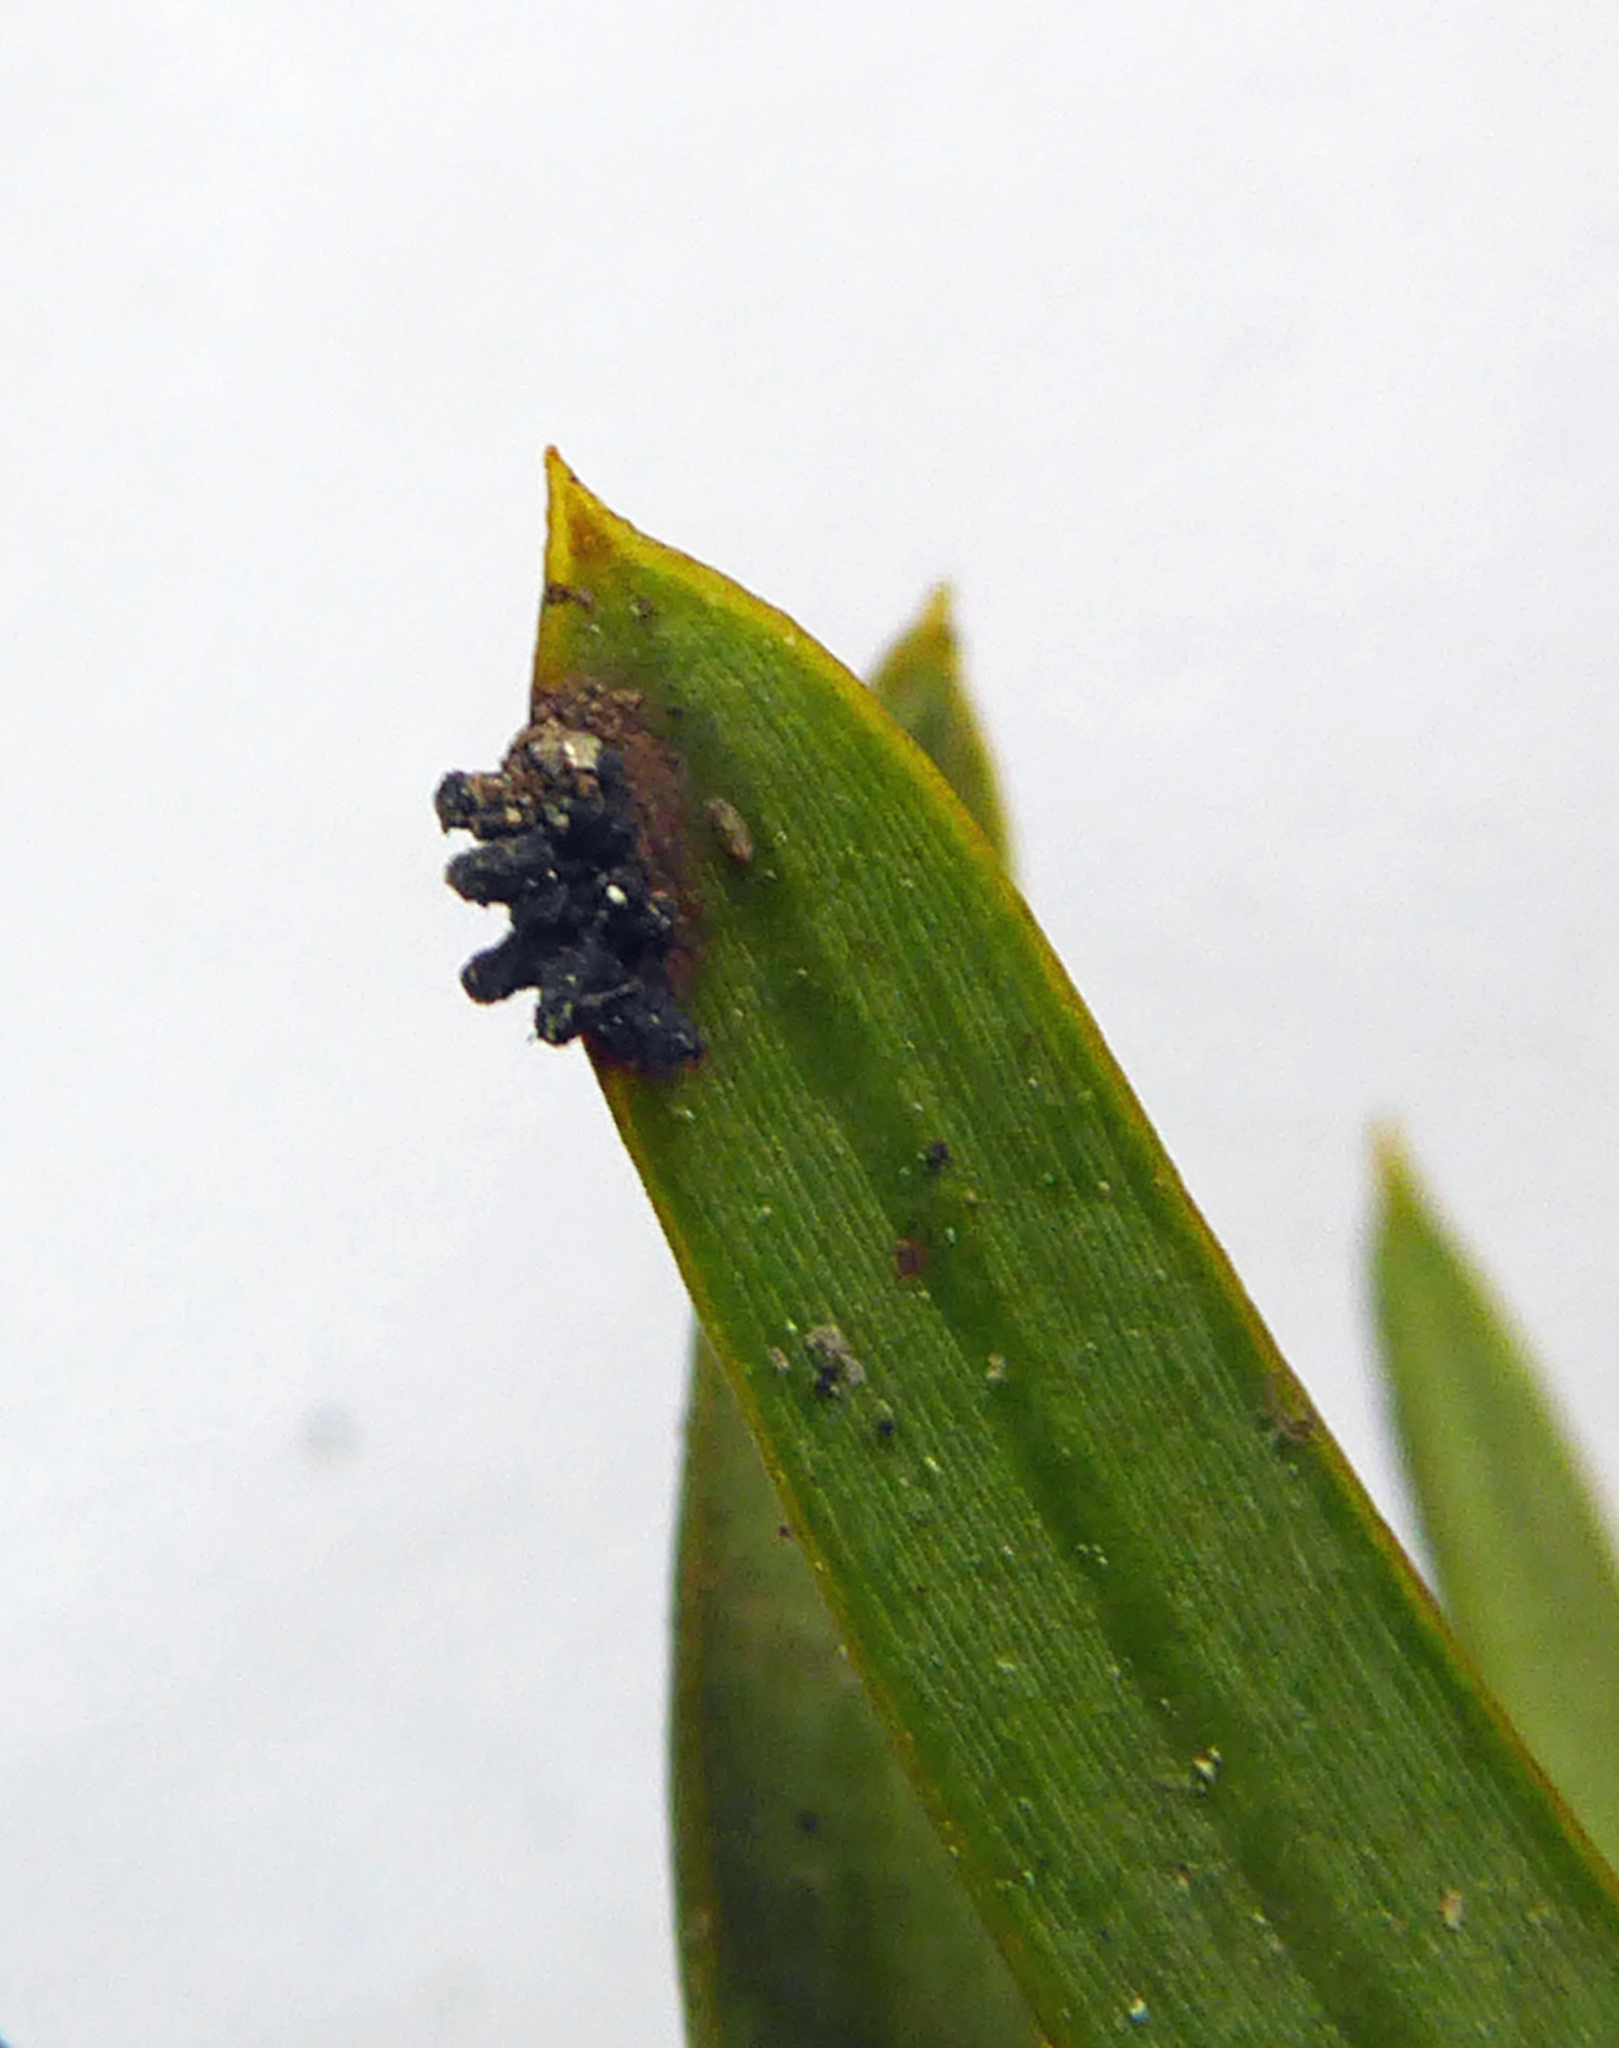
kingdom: Fungi
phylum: Ascomycota
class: Eurotiomycetes
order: Coryneliales
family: Coryneliaceae
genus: Corynelia
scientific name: Corynelia tropica
